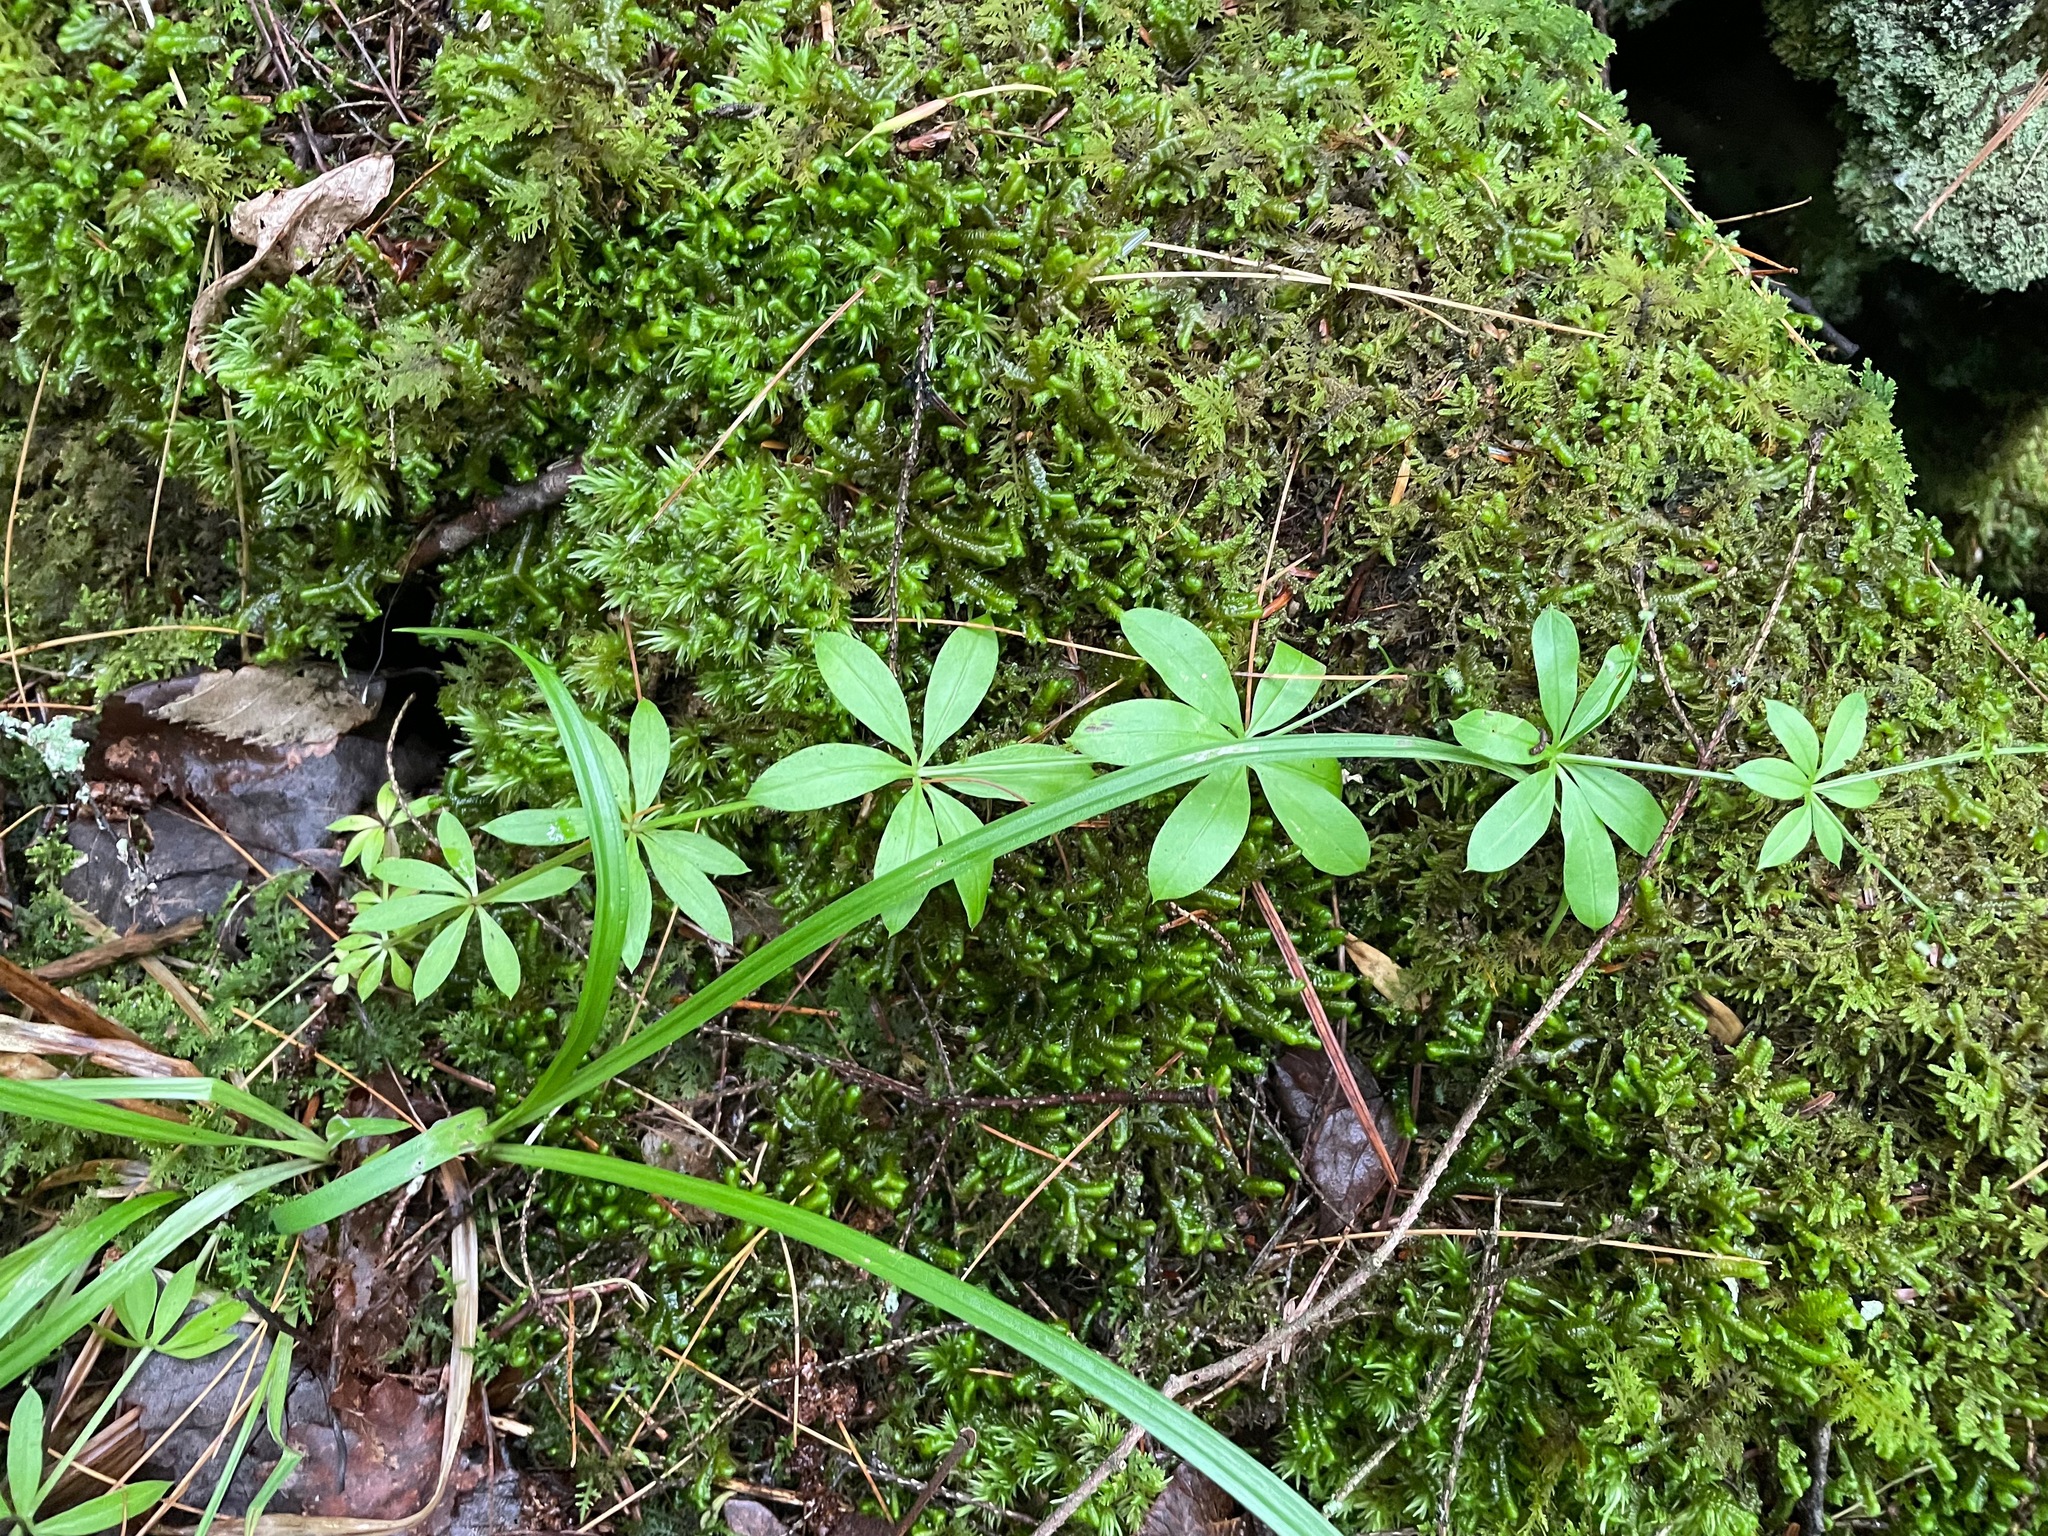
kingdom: Plantae
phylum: Tracheophyta
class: Magnoliopsida
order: Gentianales
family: Rubiaceae
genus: Galium
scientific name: Galium triflorum
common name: Fragrant bedstraw
